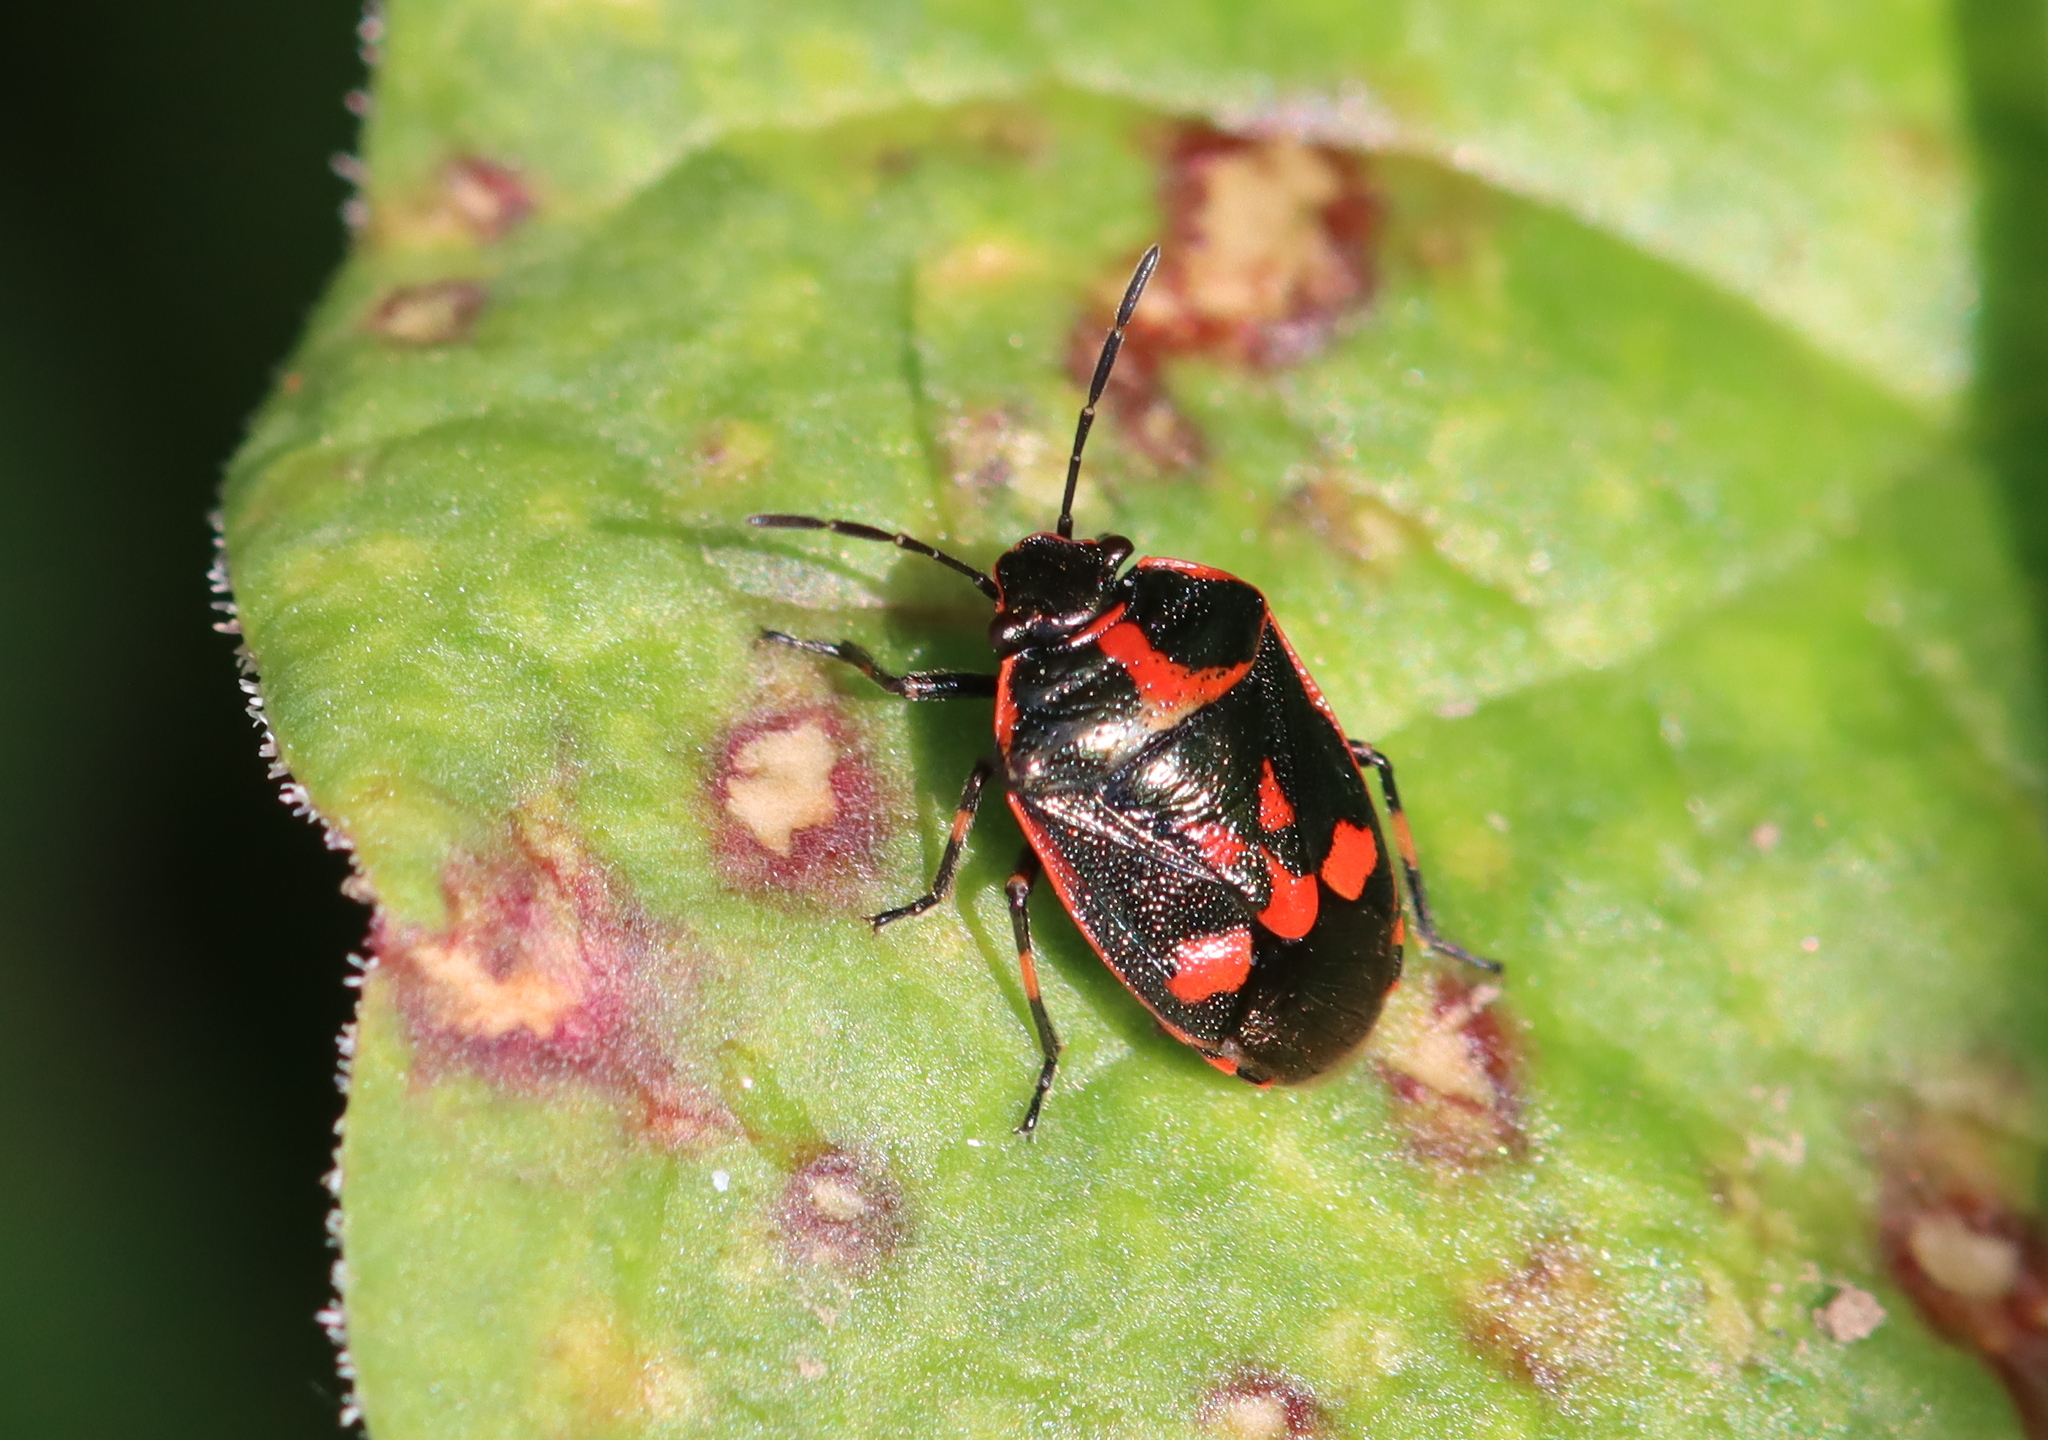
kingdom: Animalia
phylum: Arthropoda
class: Insecta
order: Hemiptera
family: Pentatomidae
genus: Eurydema
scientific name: Eurydema oleracea
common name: Cabbage bug
